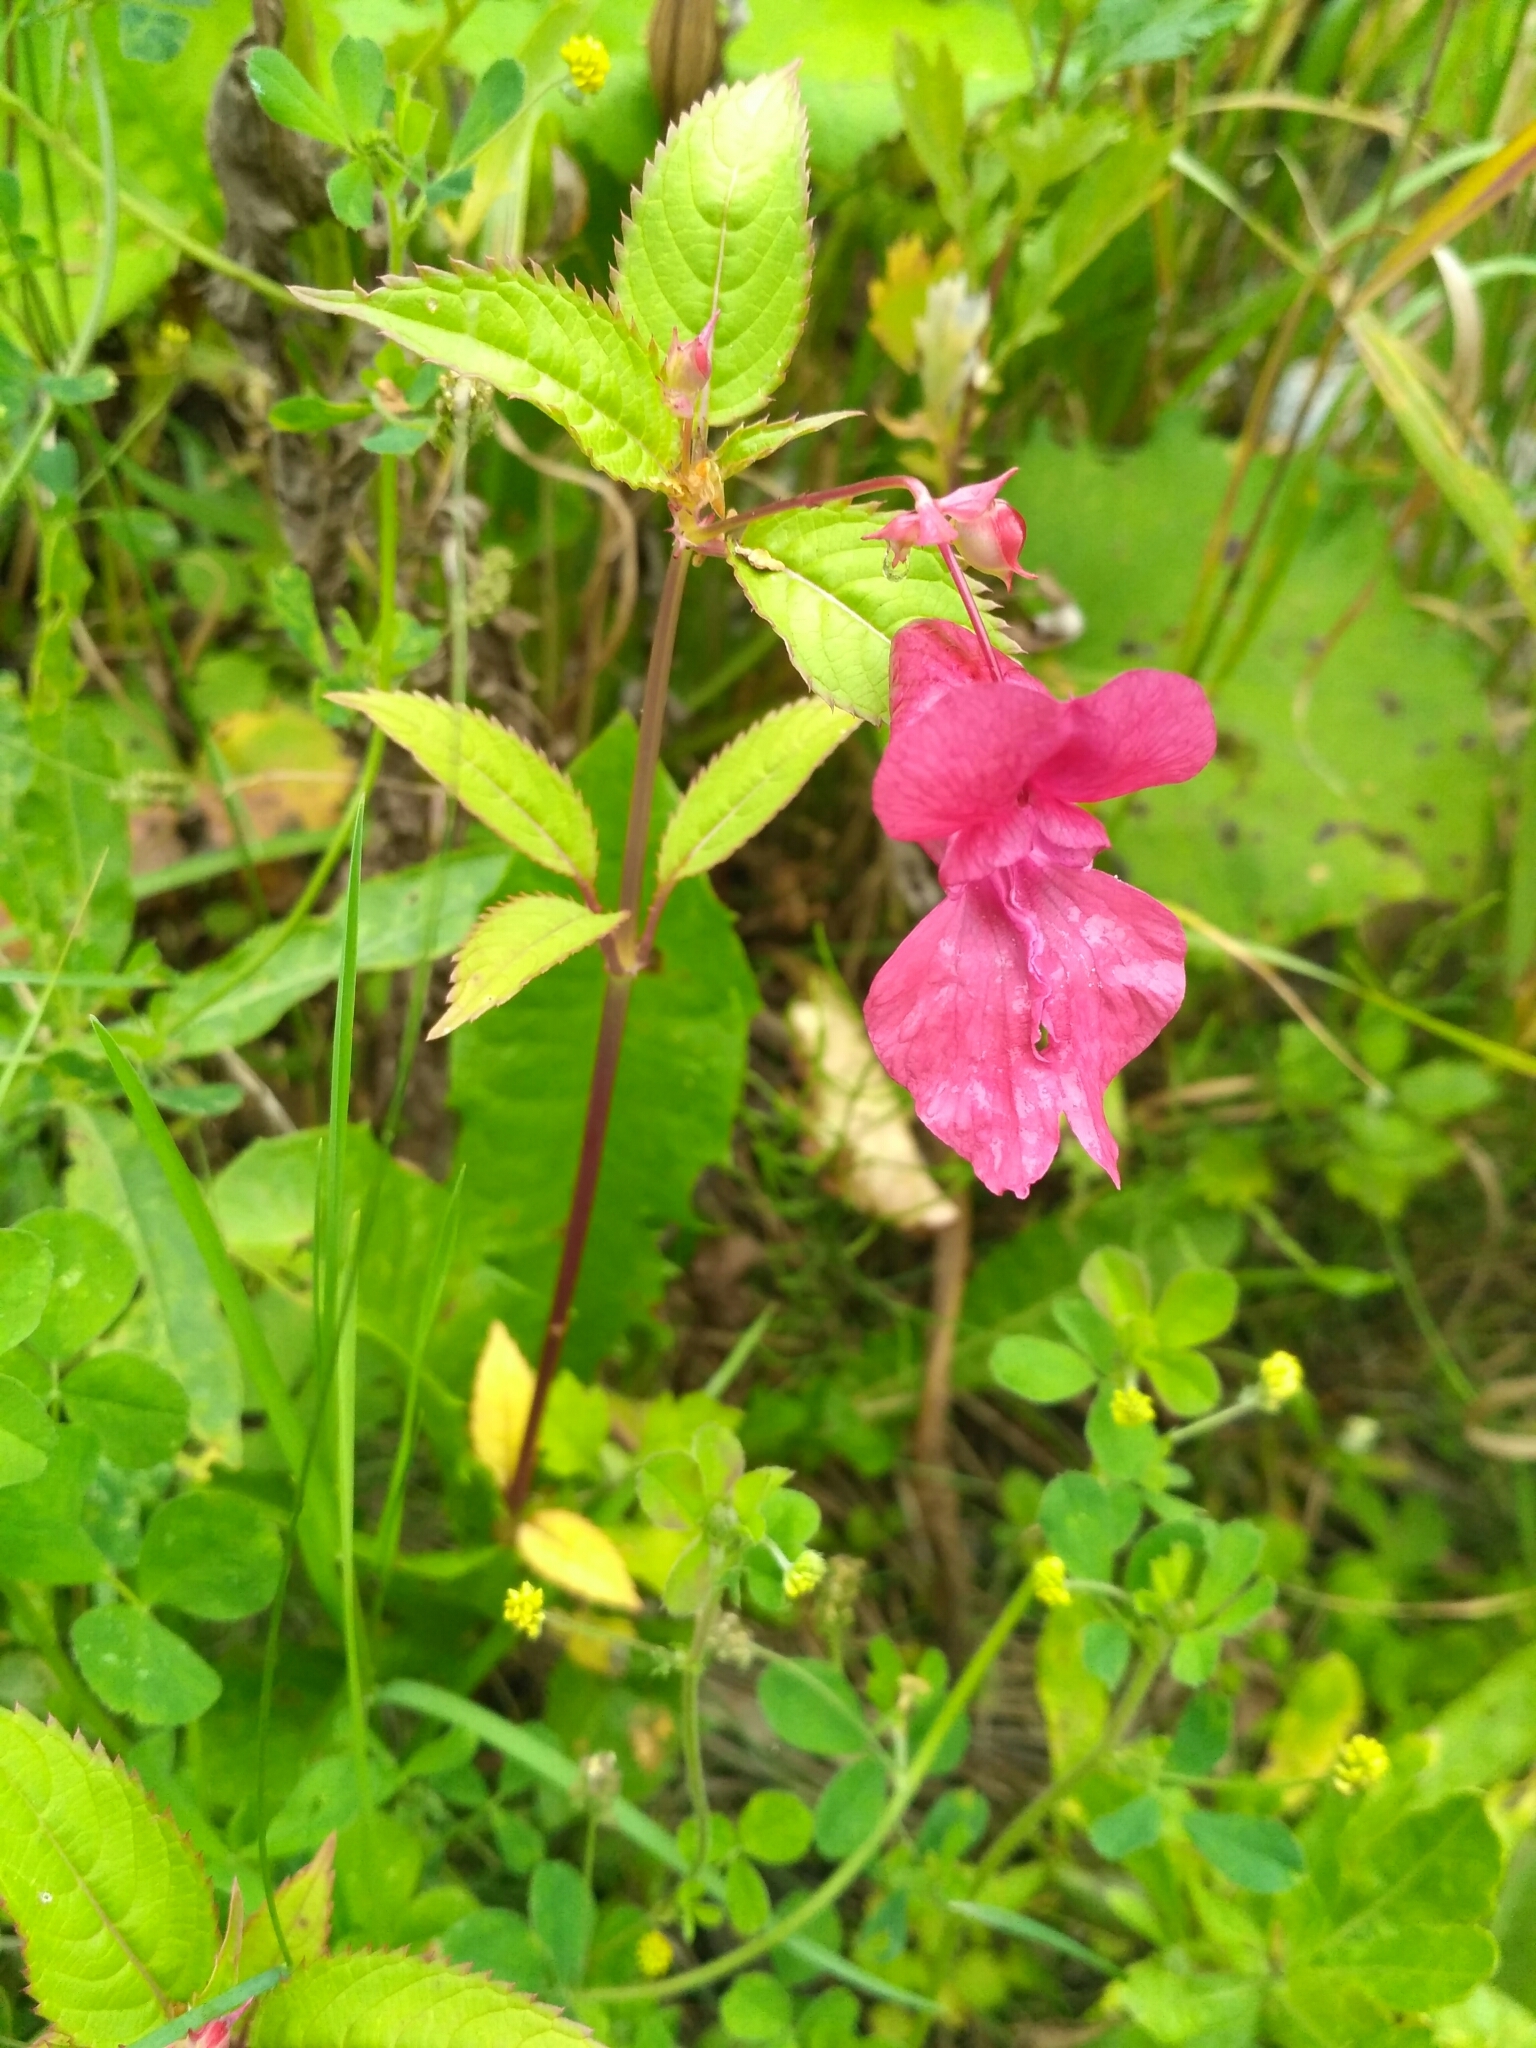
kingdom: Plantae
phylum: Tracheophyta
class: Magnoliopsida
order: Ericales
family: Balsaminaceae
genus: Impatiens
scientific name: Impatiens glandulifera
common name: Himalayan balsam
